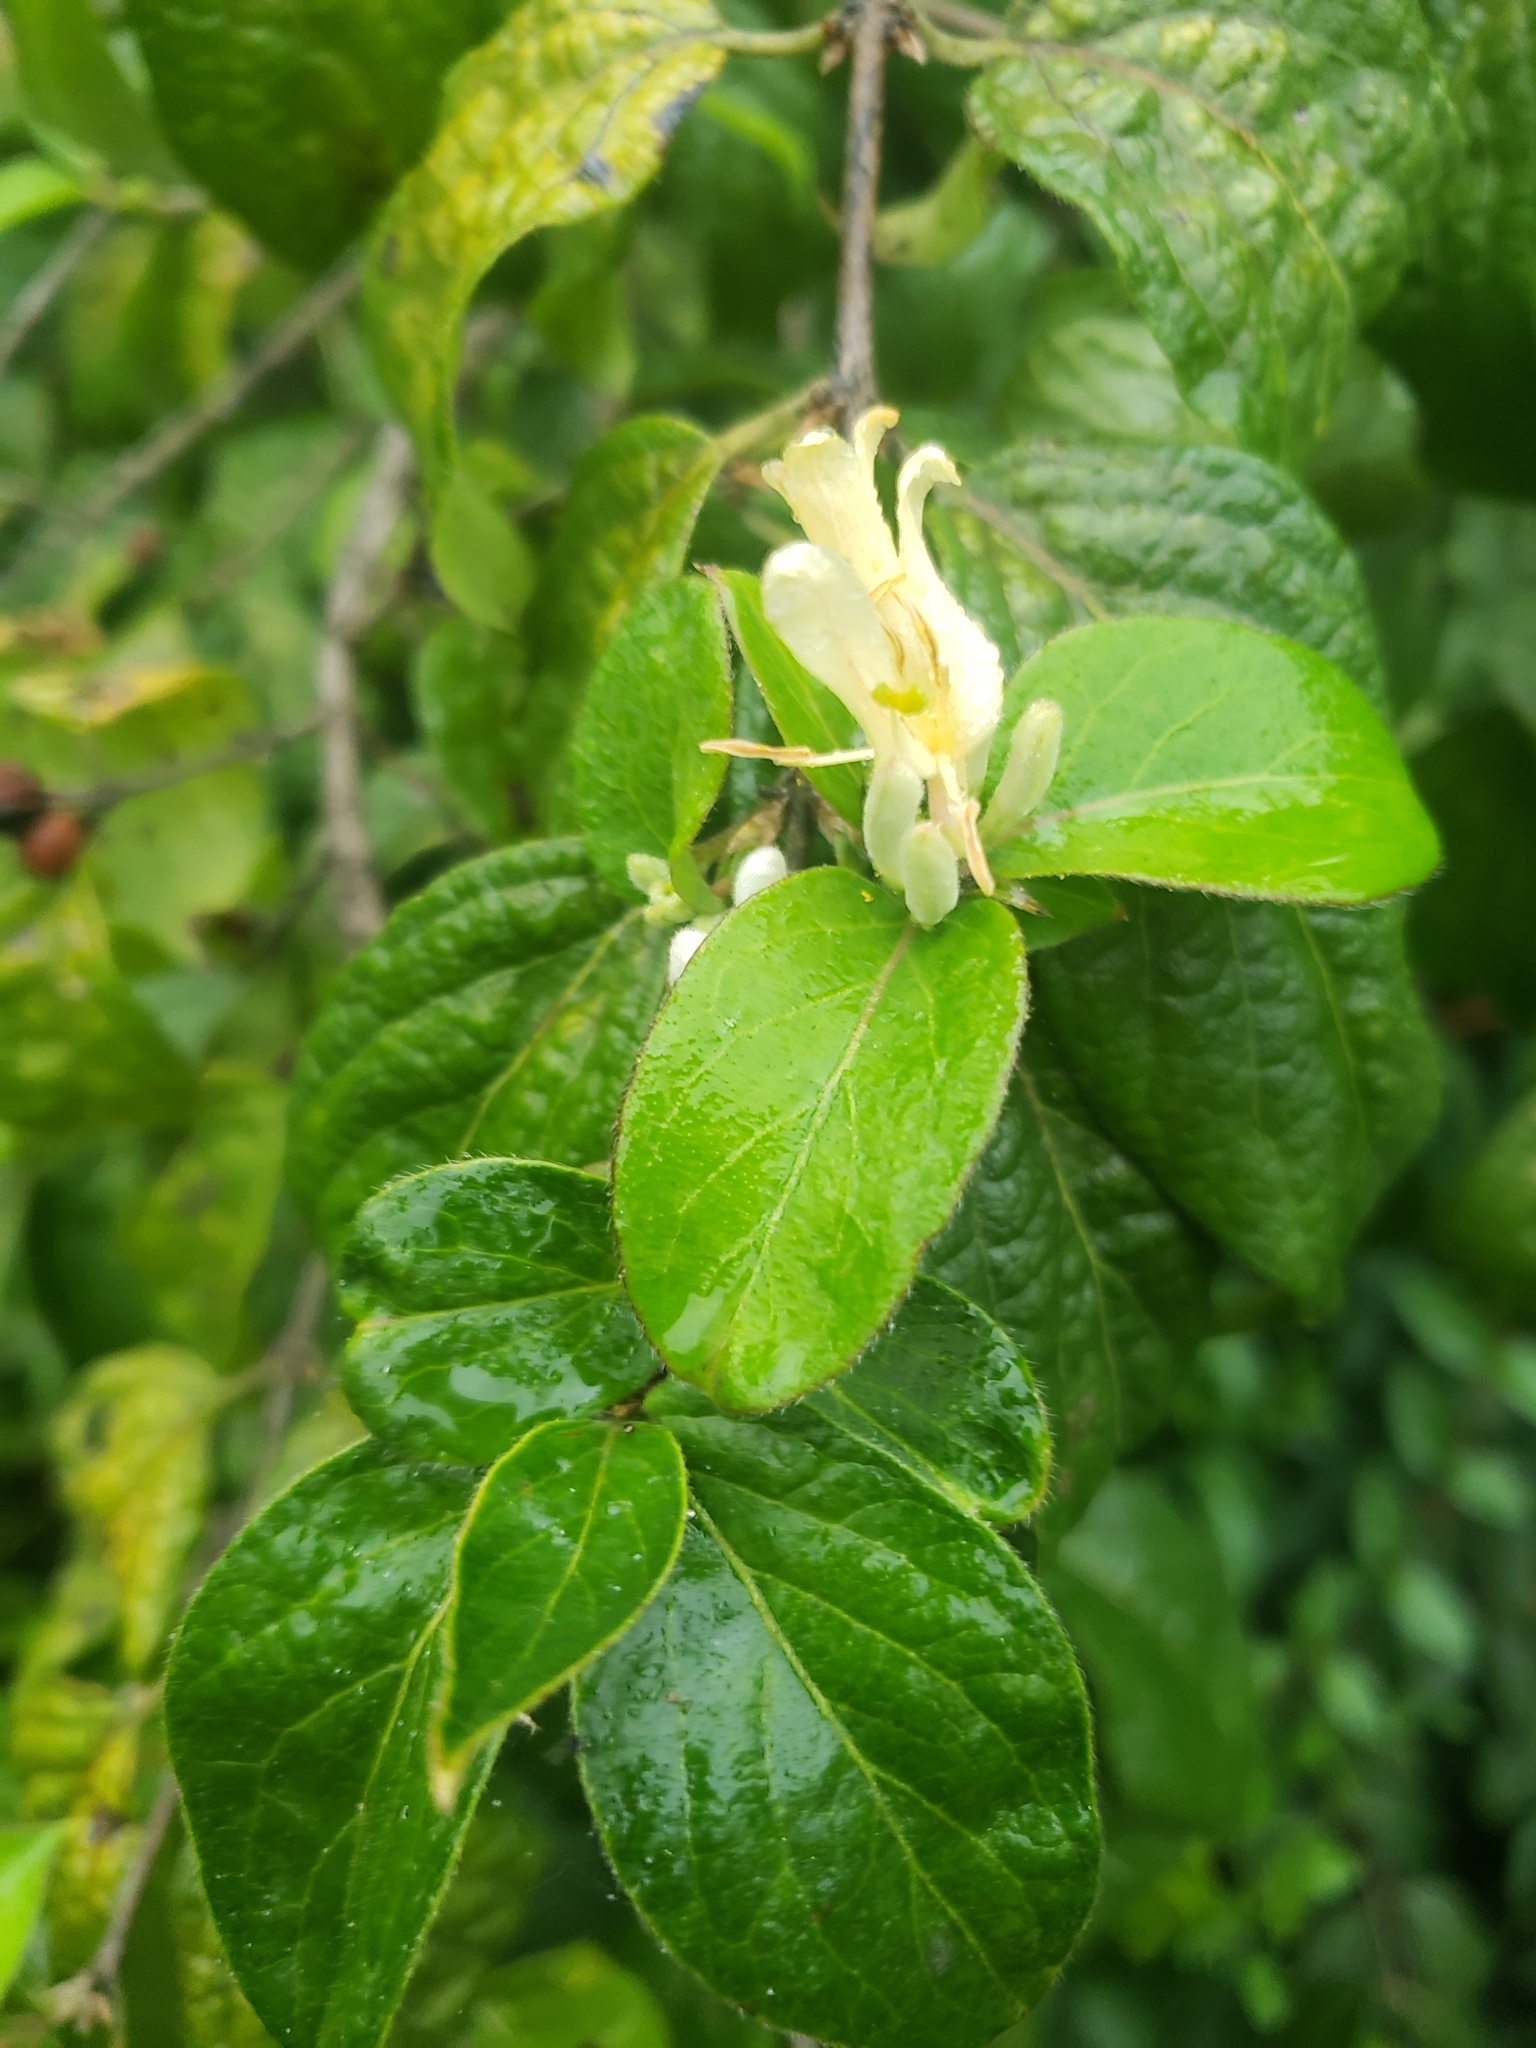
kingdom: Plantae
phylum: Tracheophyta
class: Magnoliopsida
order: Dipsacales
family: Caprifoliaceae
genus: Lonicera
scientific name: Lonicera maackii
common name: Amur honeysuckle
